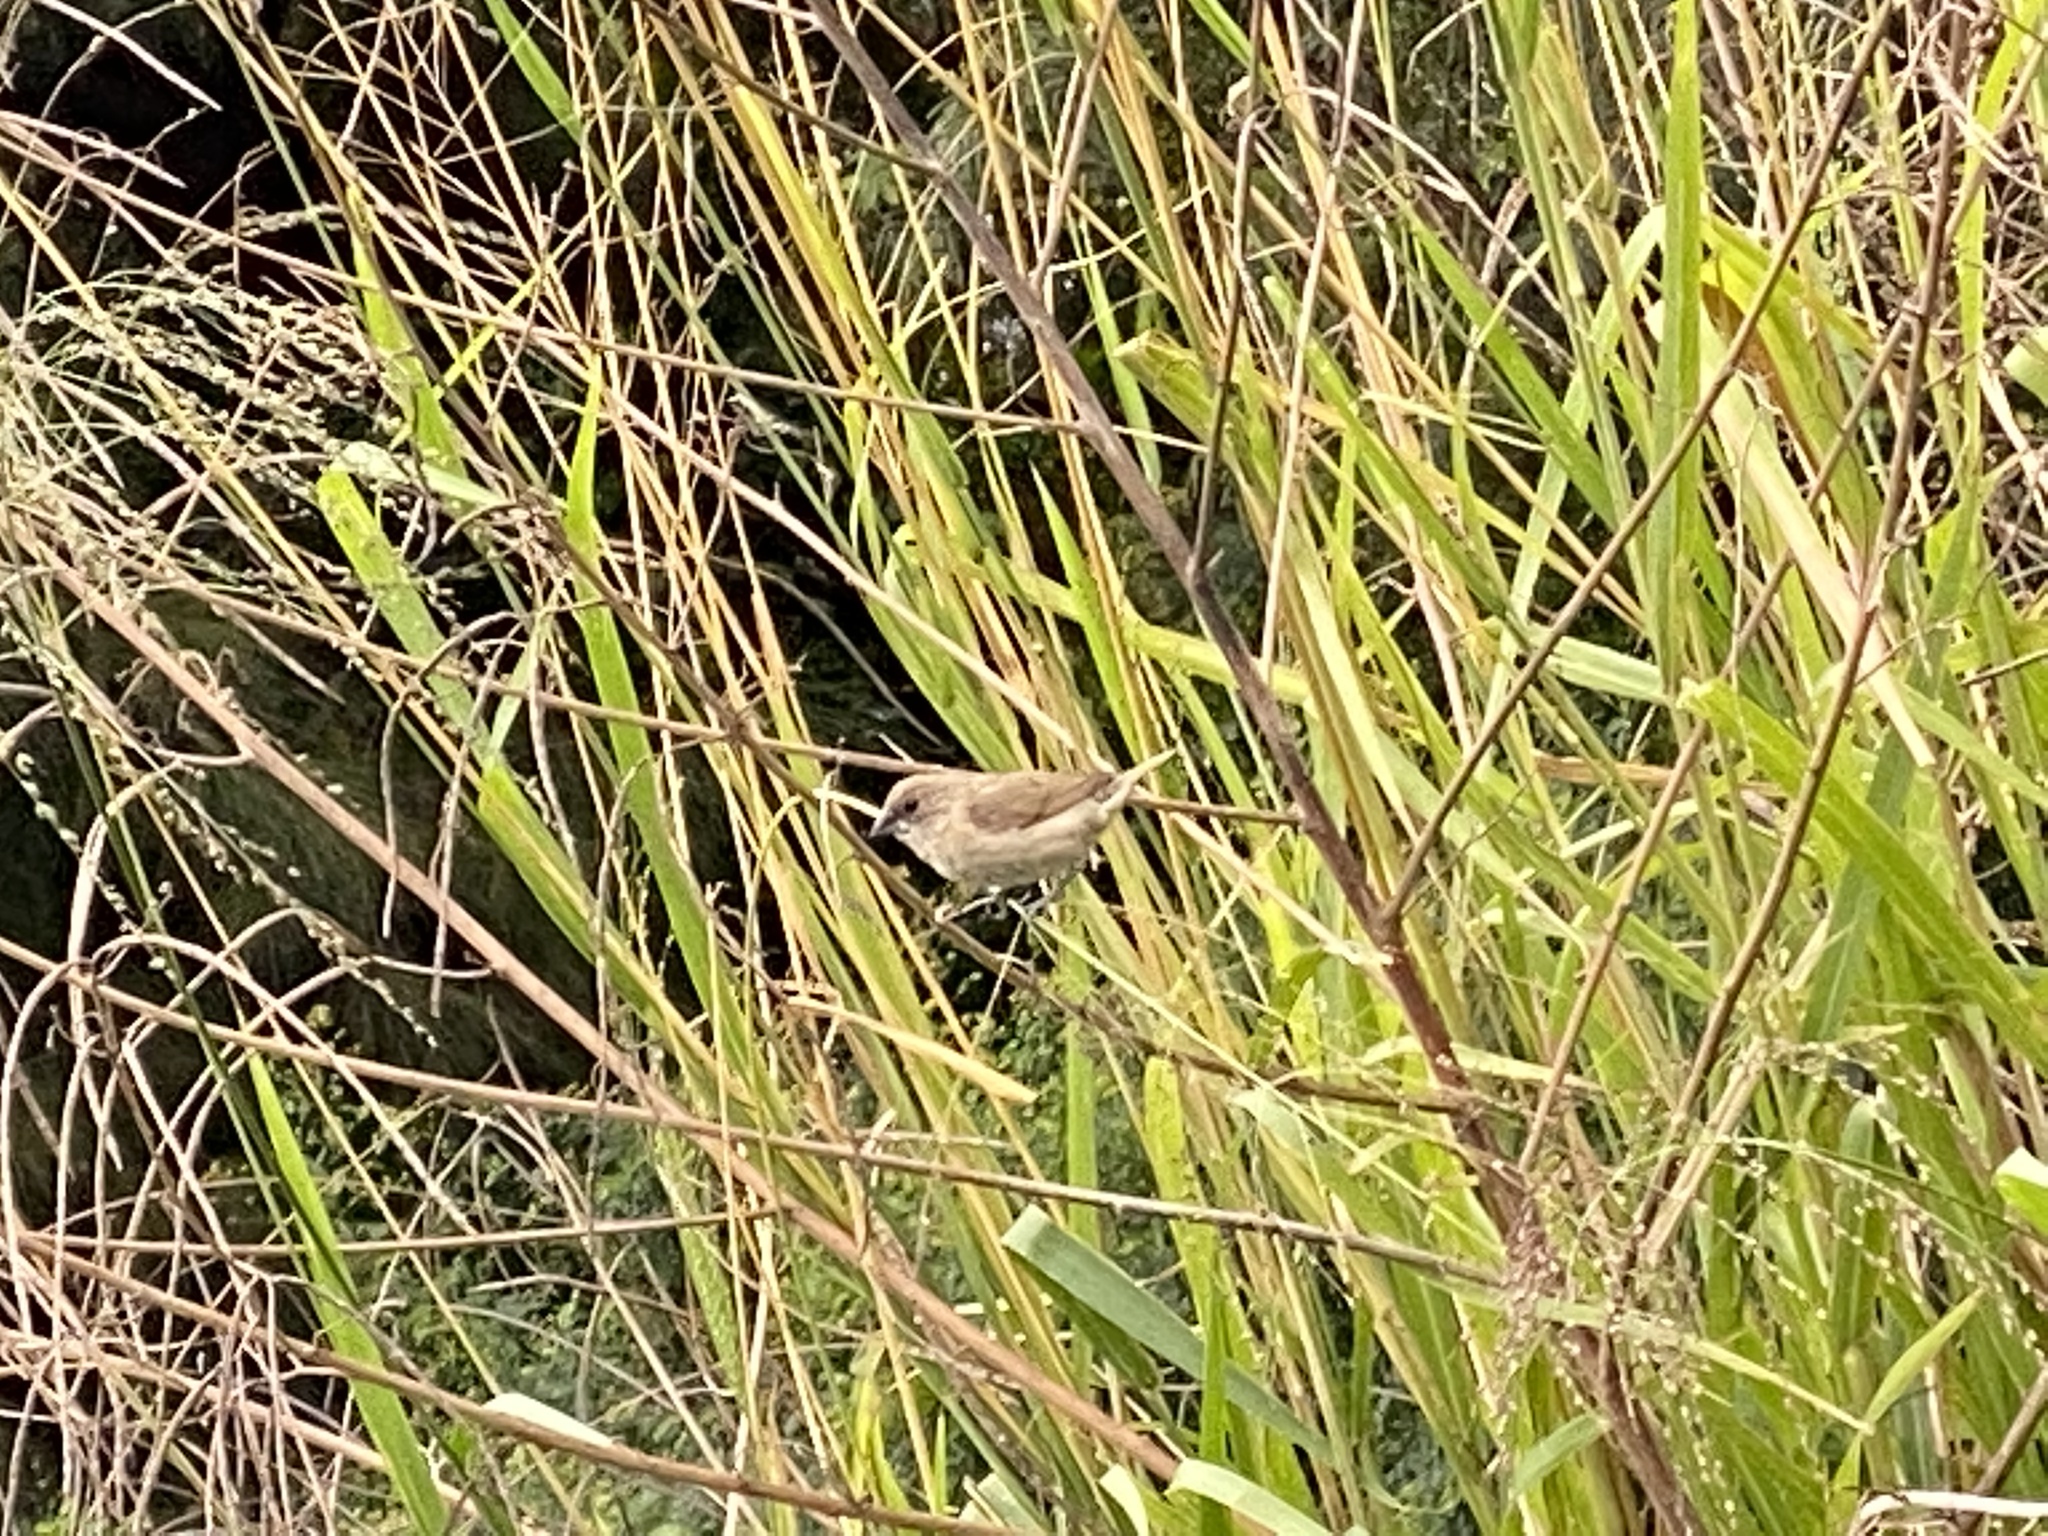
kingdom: Animalia
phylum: Chordata
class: Aves
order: Passeriformes
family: Estrildidae
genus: Lonchura
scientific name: Lonchura punctulata
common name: Scaly-breasted munia
